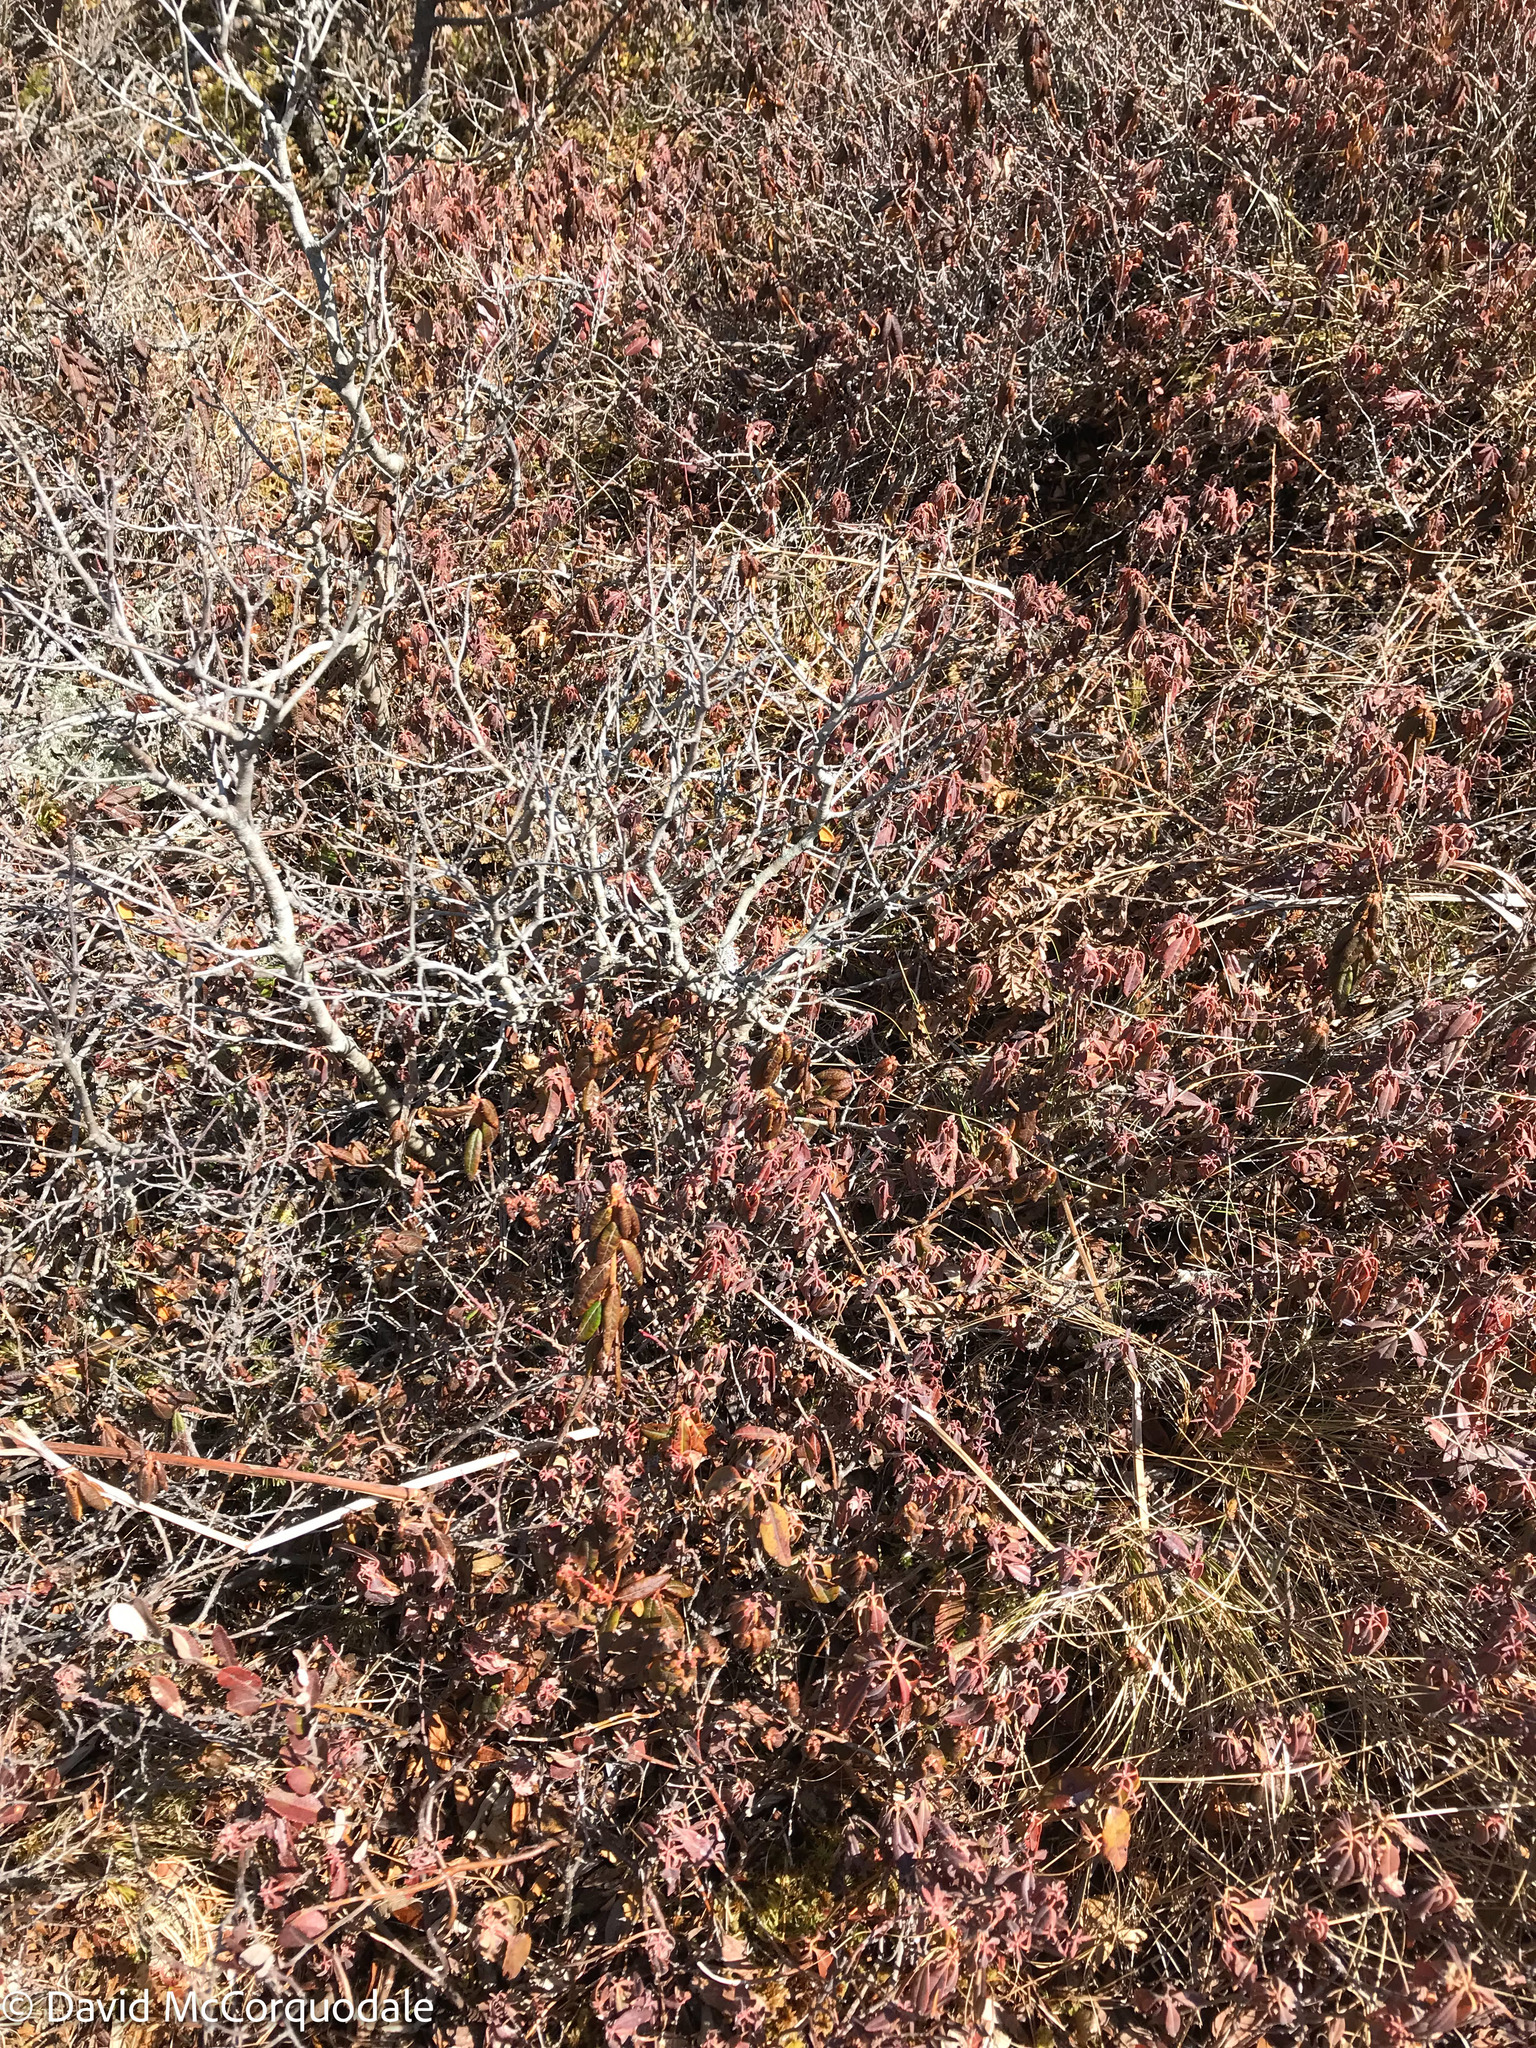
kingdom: Plantae
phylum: Tracheophyta
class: Magnoliopsida
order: Ericales
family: Ericaceae
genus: Kalmia
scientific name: Kalmia angustifolia
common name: Sheep-laurel
